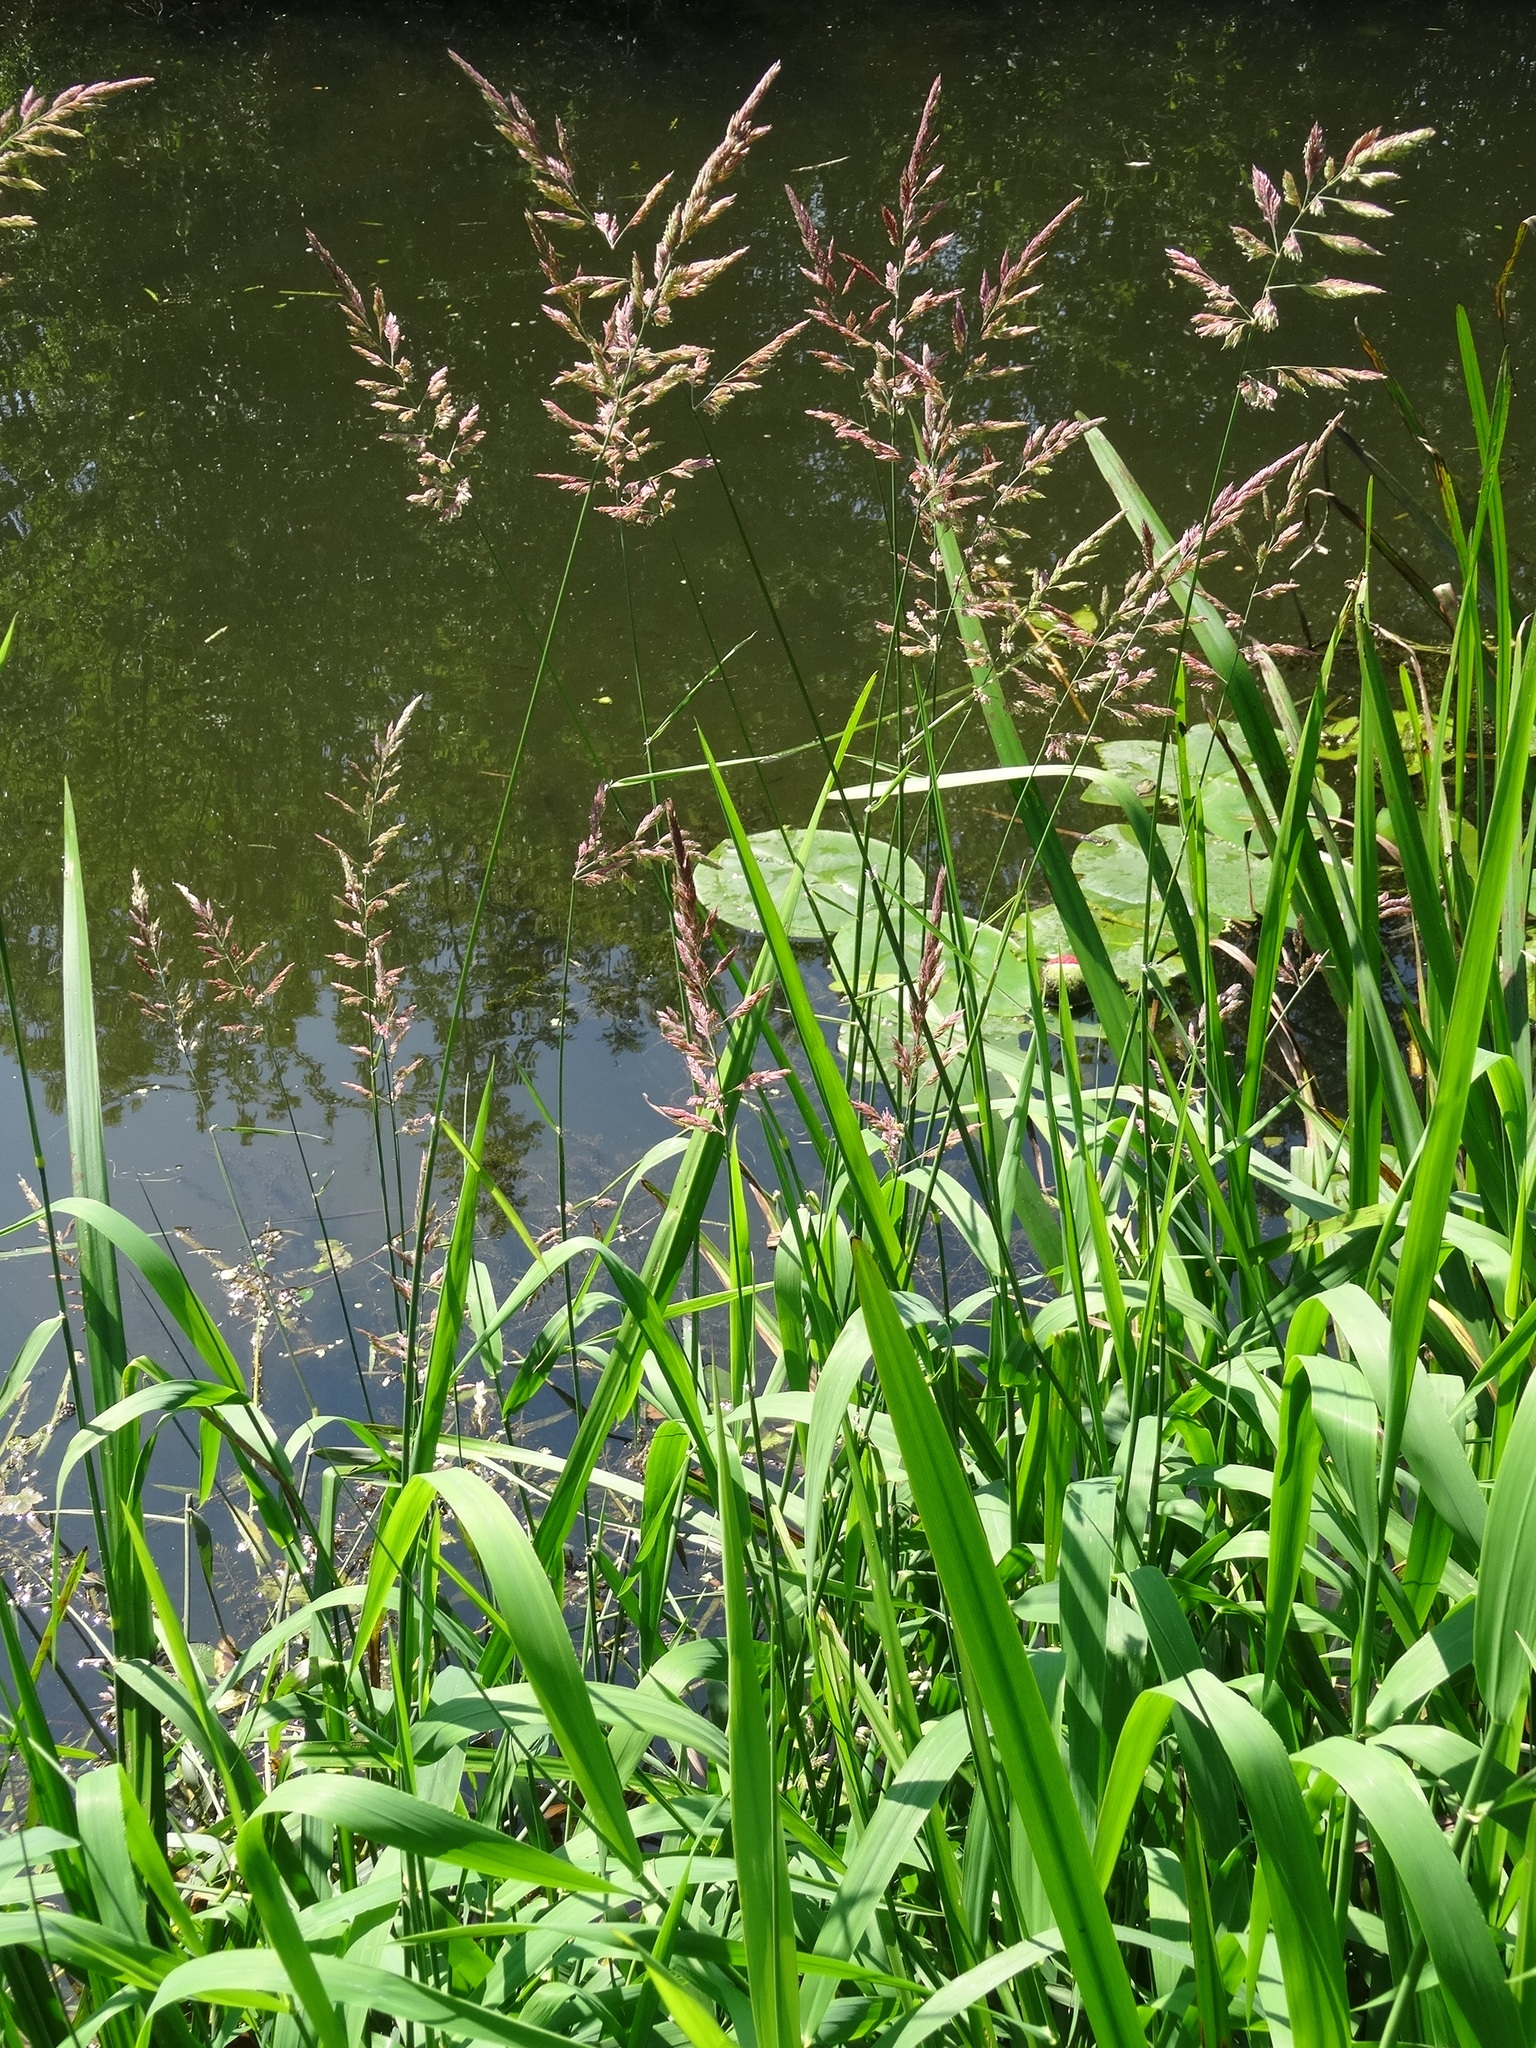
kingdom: Plantae
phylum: Tracheophyta
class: Liliopsida
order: Poales
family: Poaceae
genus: Phalaris
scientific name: Phalaris arundinacea
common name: Reed canary-grass
